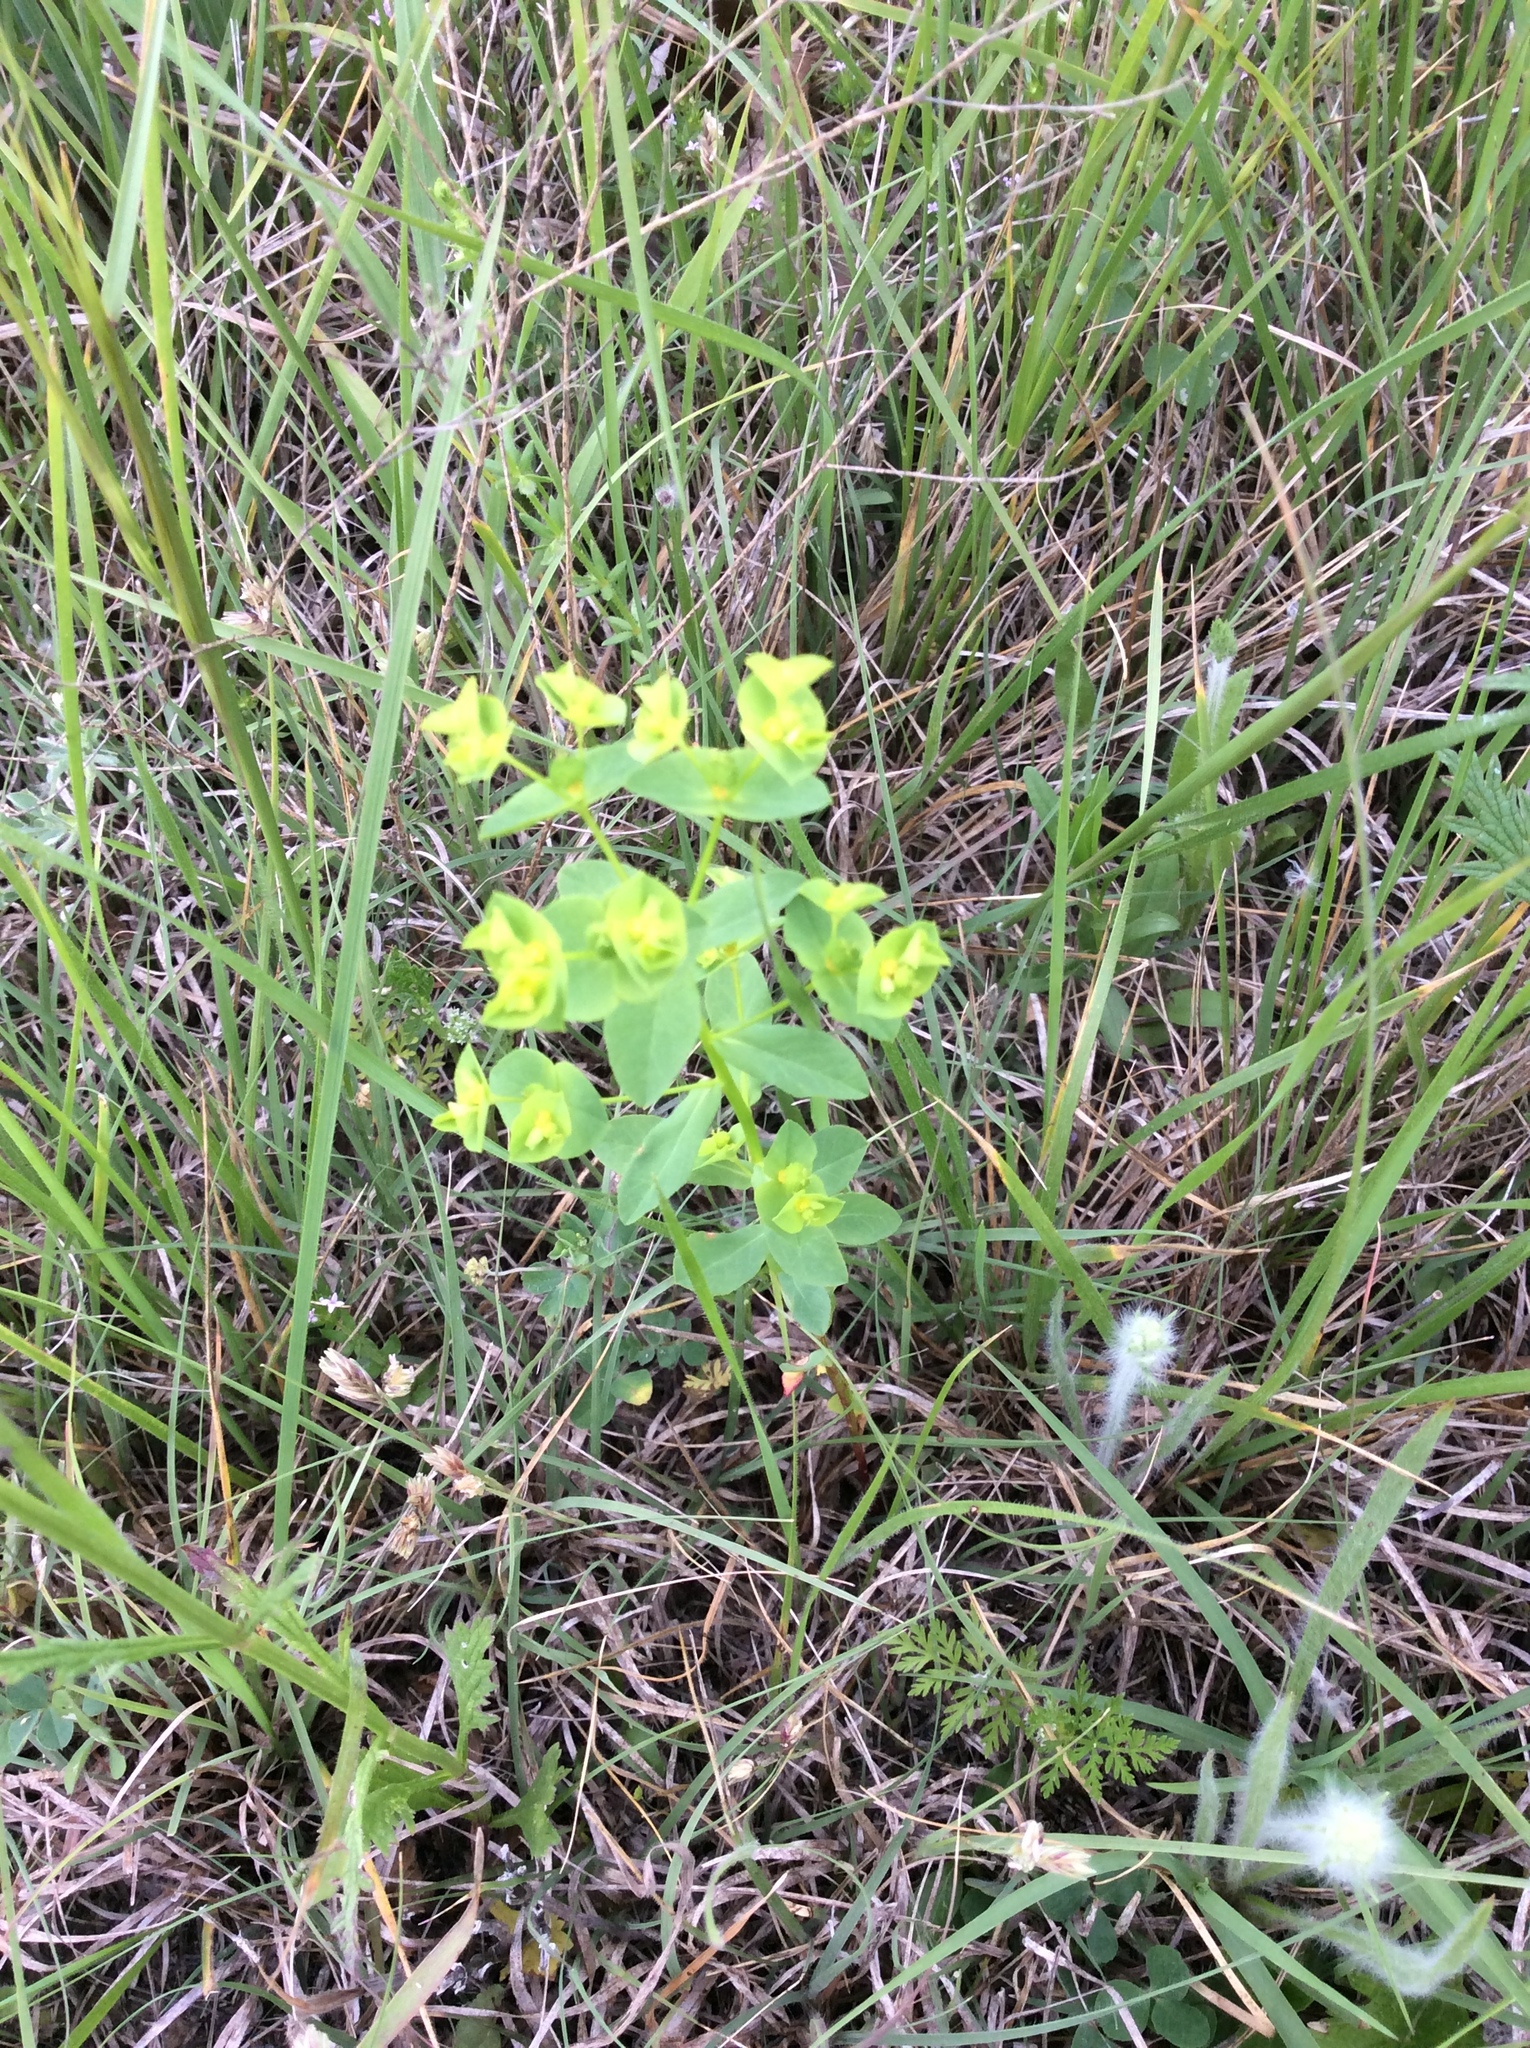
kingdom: Plantae
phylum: Tracheophyta
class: Magnoliopsida
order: Malpighiales
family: Euphorbiaceae
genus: Euphorbia
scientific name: Euphorbia spathulata
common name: Blunt spurge
